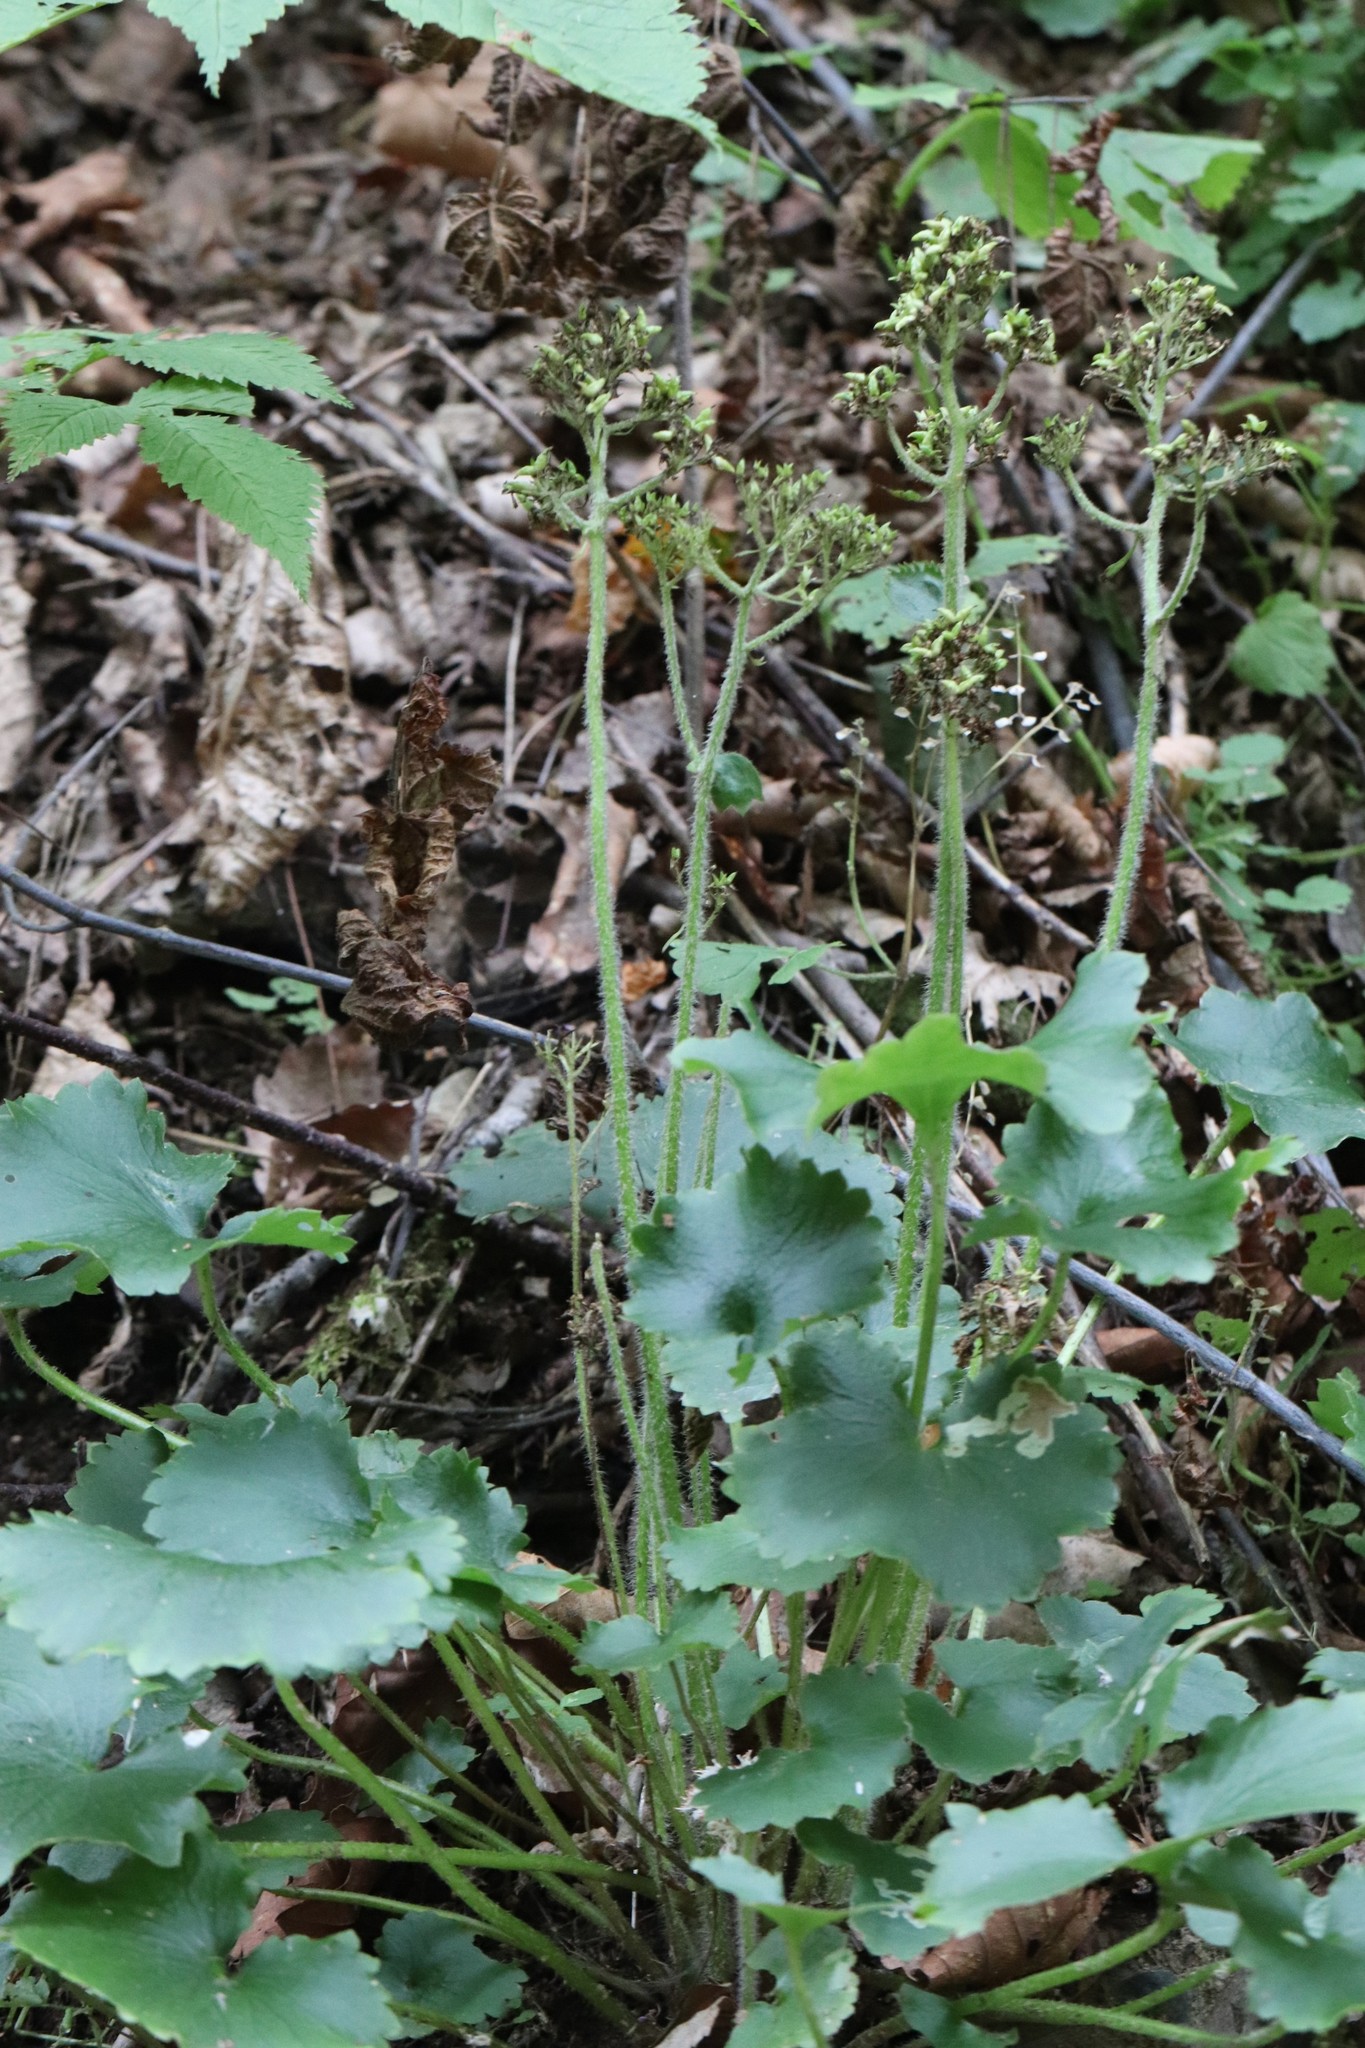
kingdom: Plantae
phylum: Tracheophyta
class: Magnoliopsida
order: Saxifragales
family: Saxifragaceae
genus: Micranthes
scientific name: Micranthes manchuriensis
